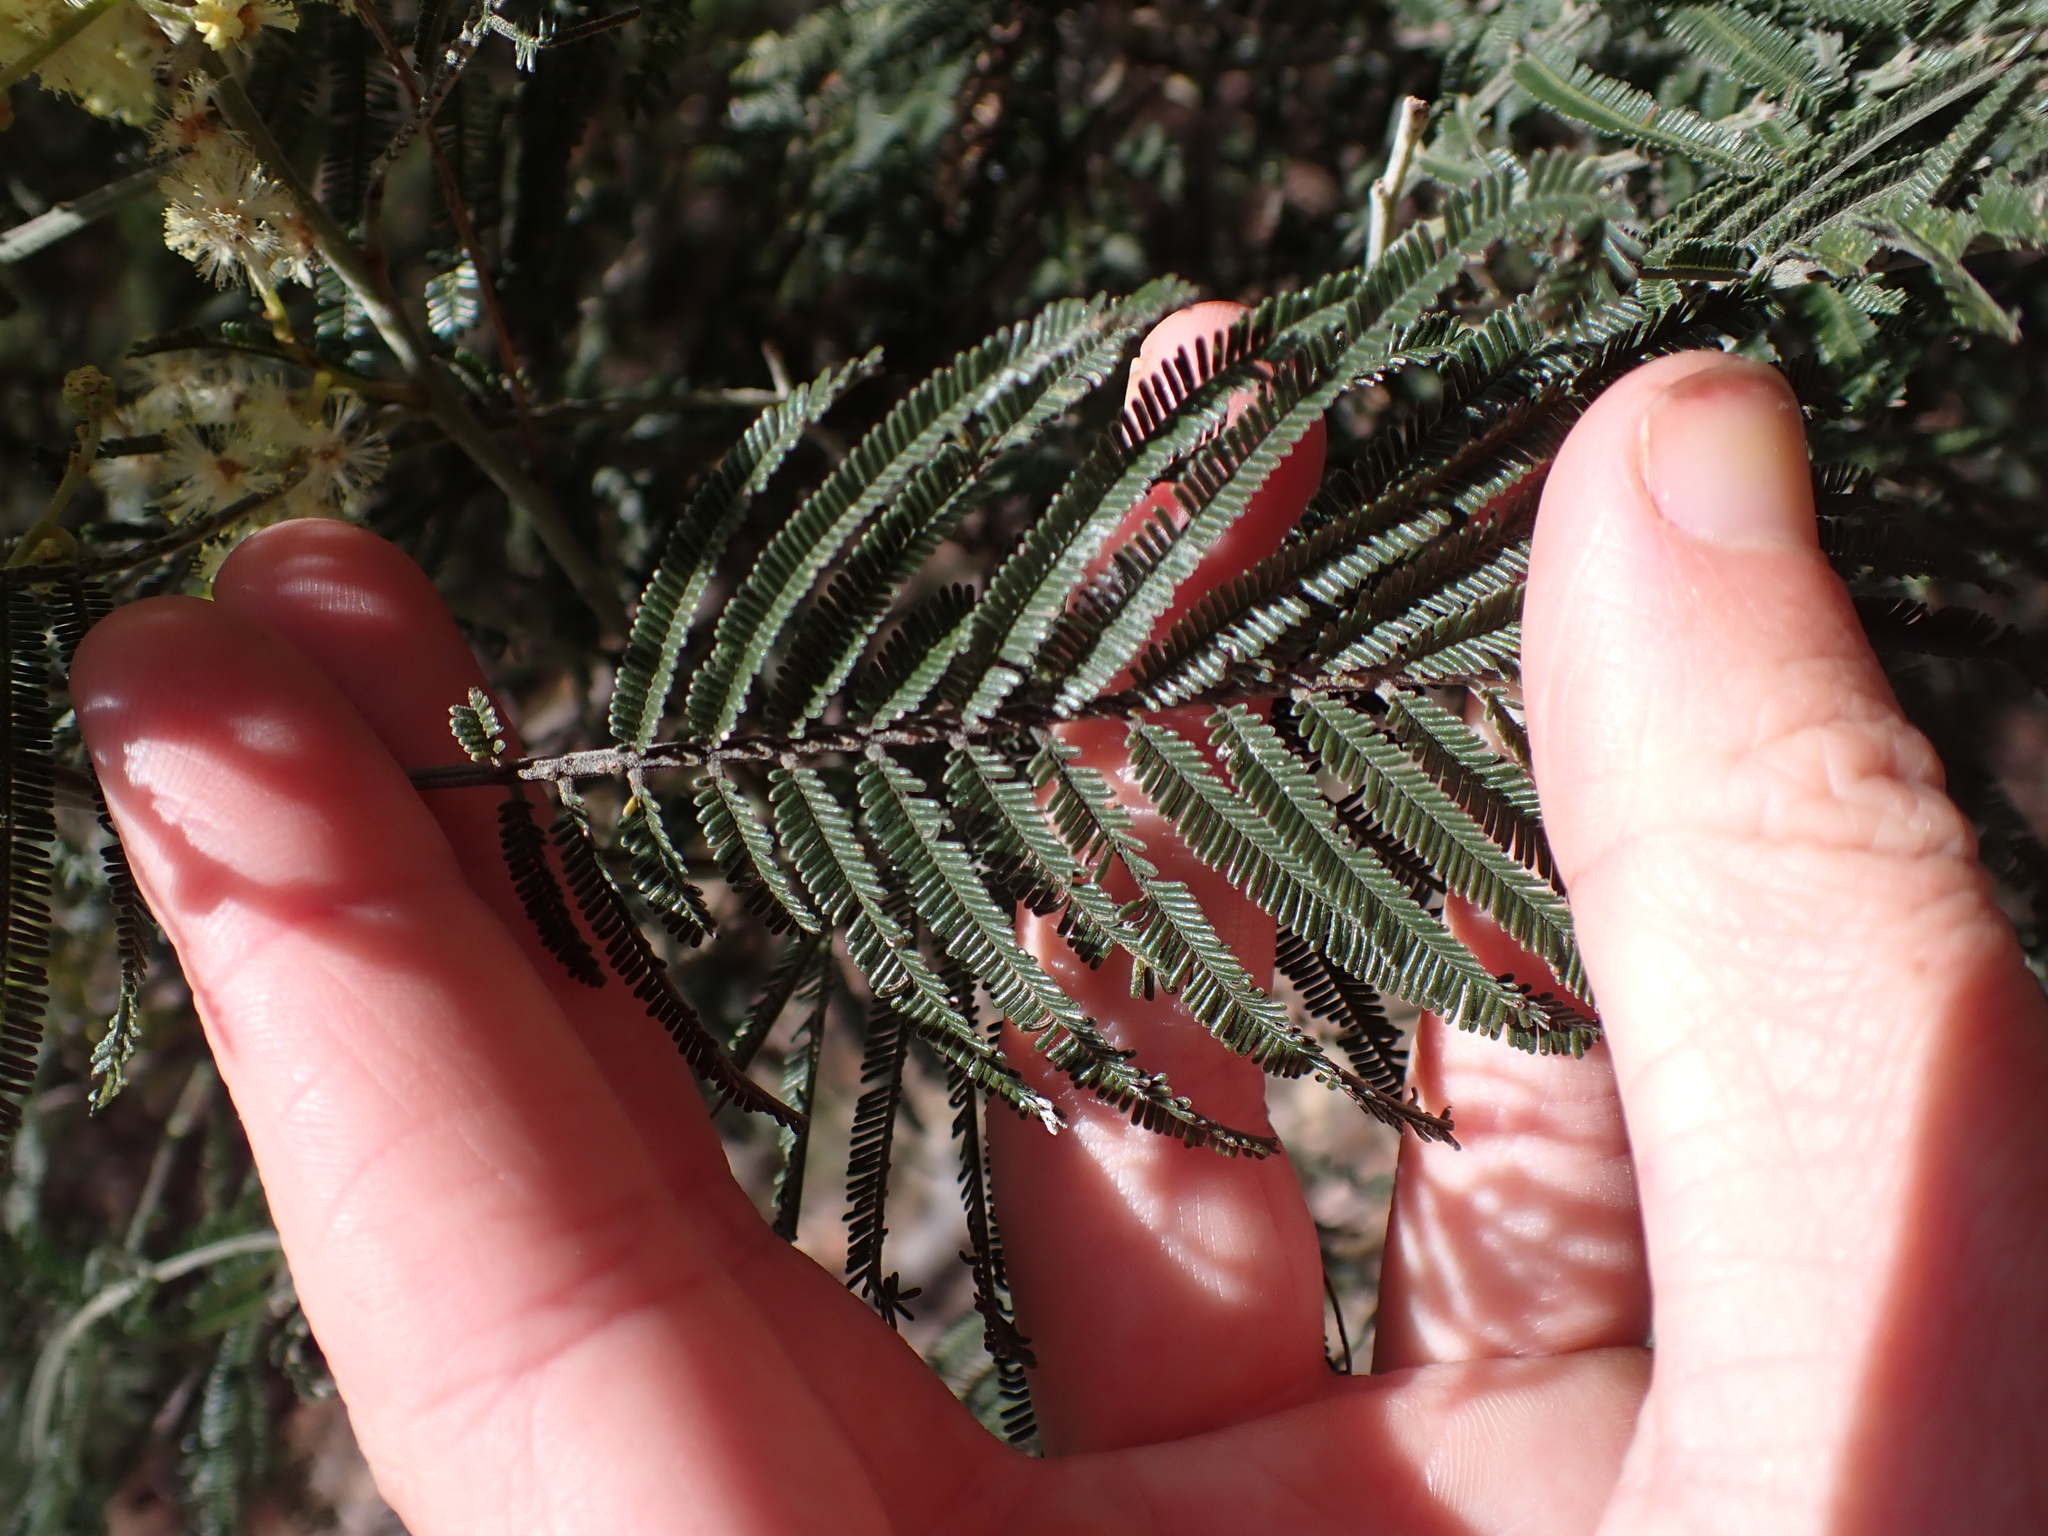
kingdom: Plantae
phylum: Tracheophyta
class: Magnoliopsida
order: Fabales
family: Fabaceae
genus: Acacia
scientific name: Acacia mearnsii
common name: Black wattle
